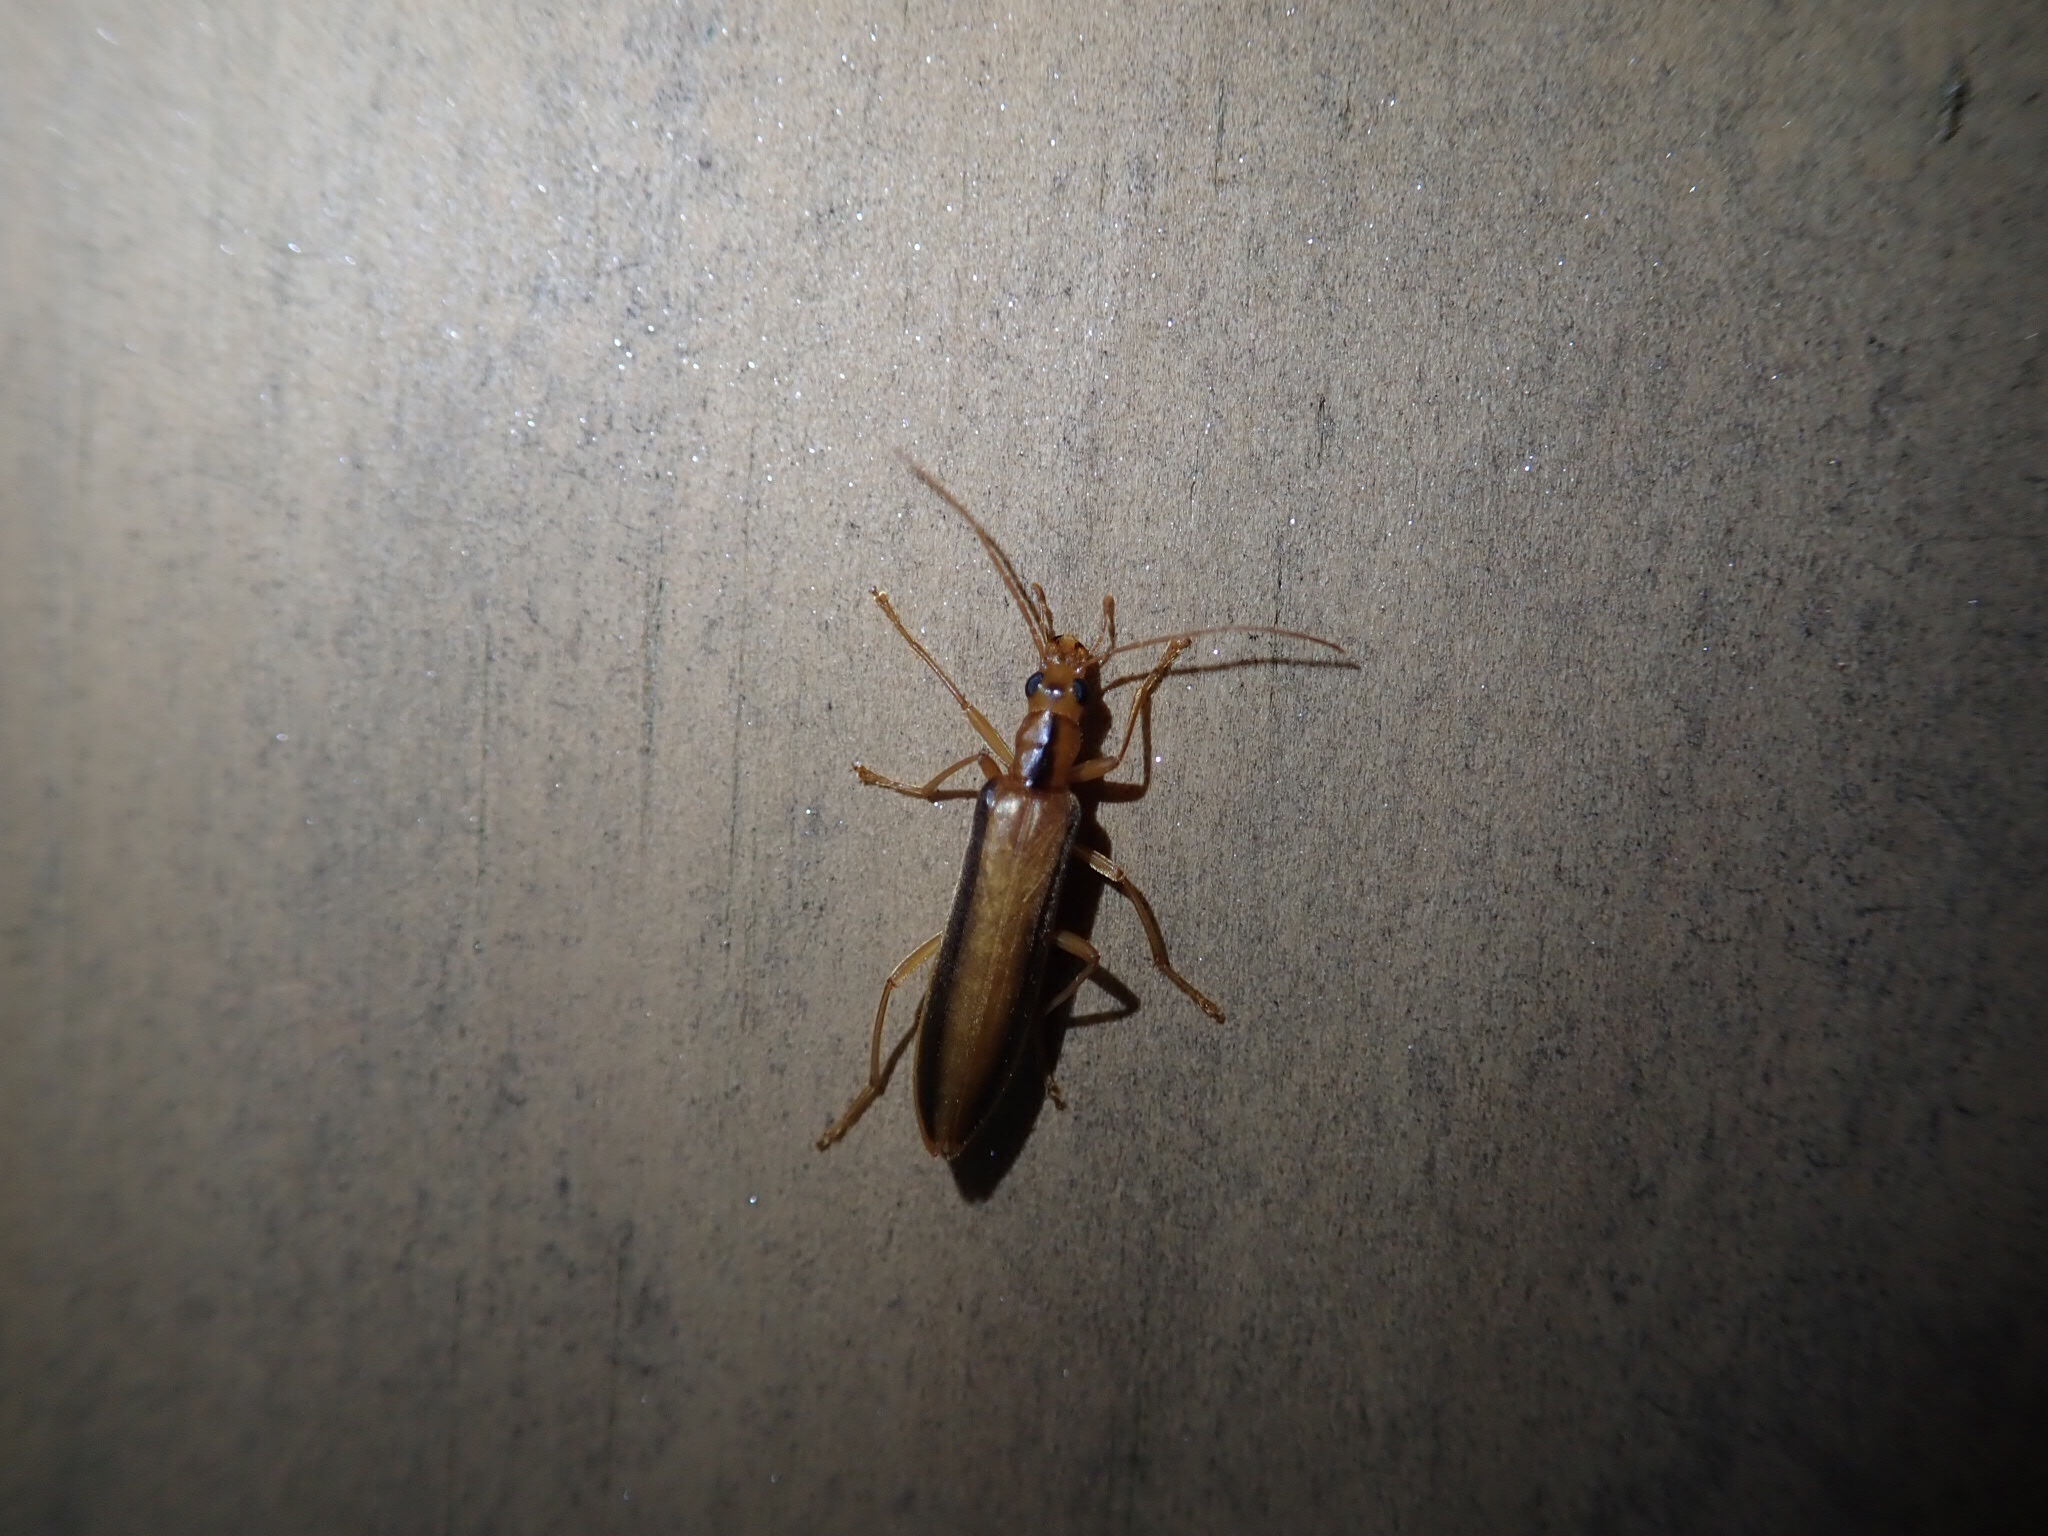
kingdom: Animalia
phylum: Arthropoda
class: Insecta
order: Coleoptera
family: Oedemeridae
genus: Thelyphassa
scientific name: Thelyphassa
